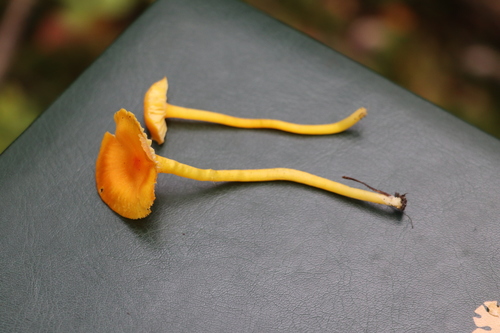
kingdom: Fungi
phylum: Basidiomycota
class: Agaricomycetes
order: Agaricales
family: Hygrophoraceae
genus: Hygrocybe
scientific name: Hygrocybe
